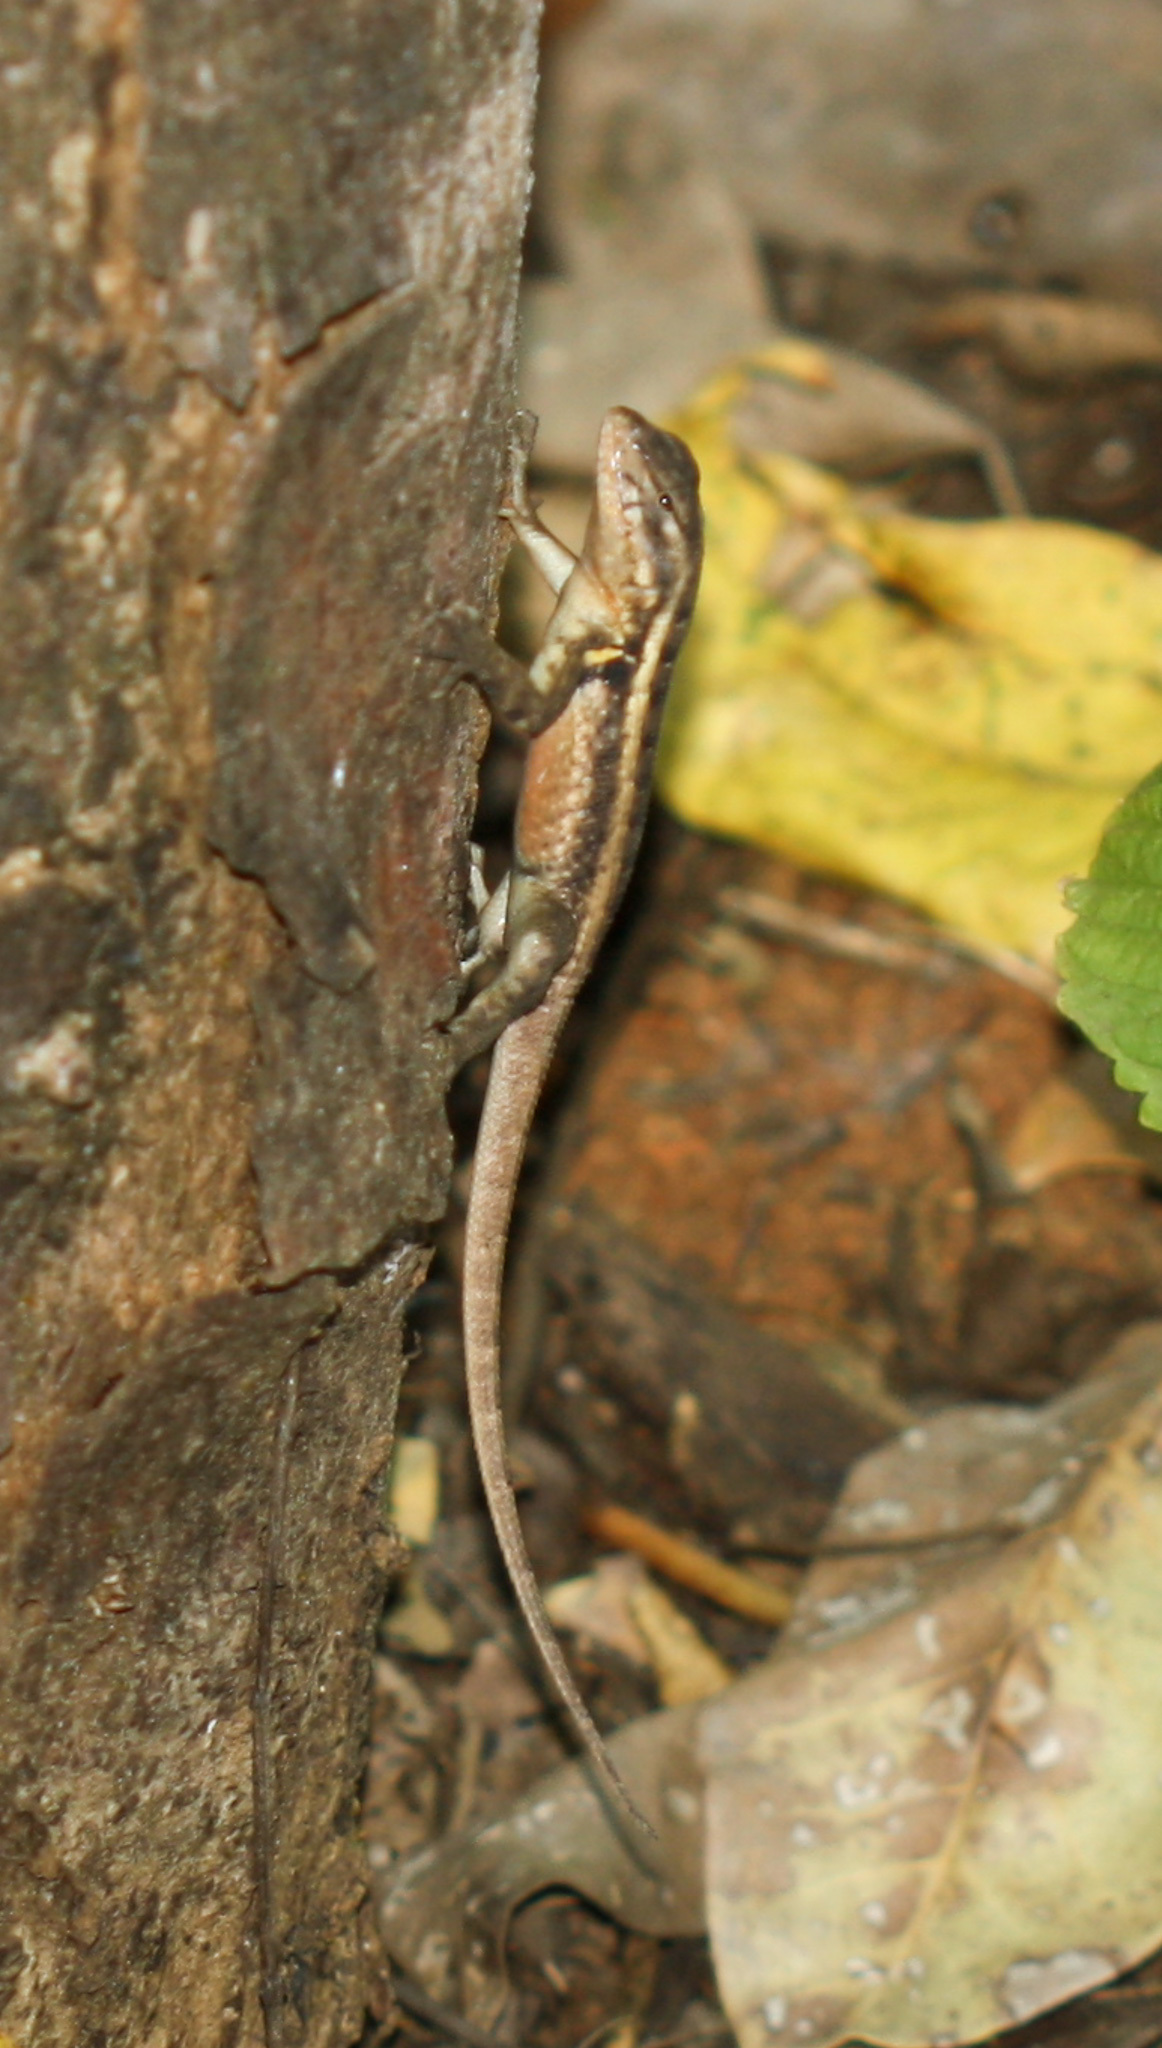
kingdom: Animalia
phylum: Chordata
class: Squamata
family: Phrynosomatidae
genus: Sceloporus
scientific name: Sceloporus variabilis
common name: Rosebelly lizard
